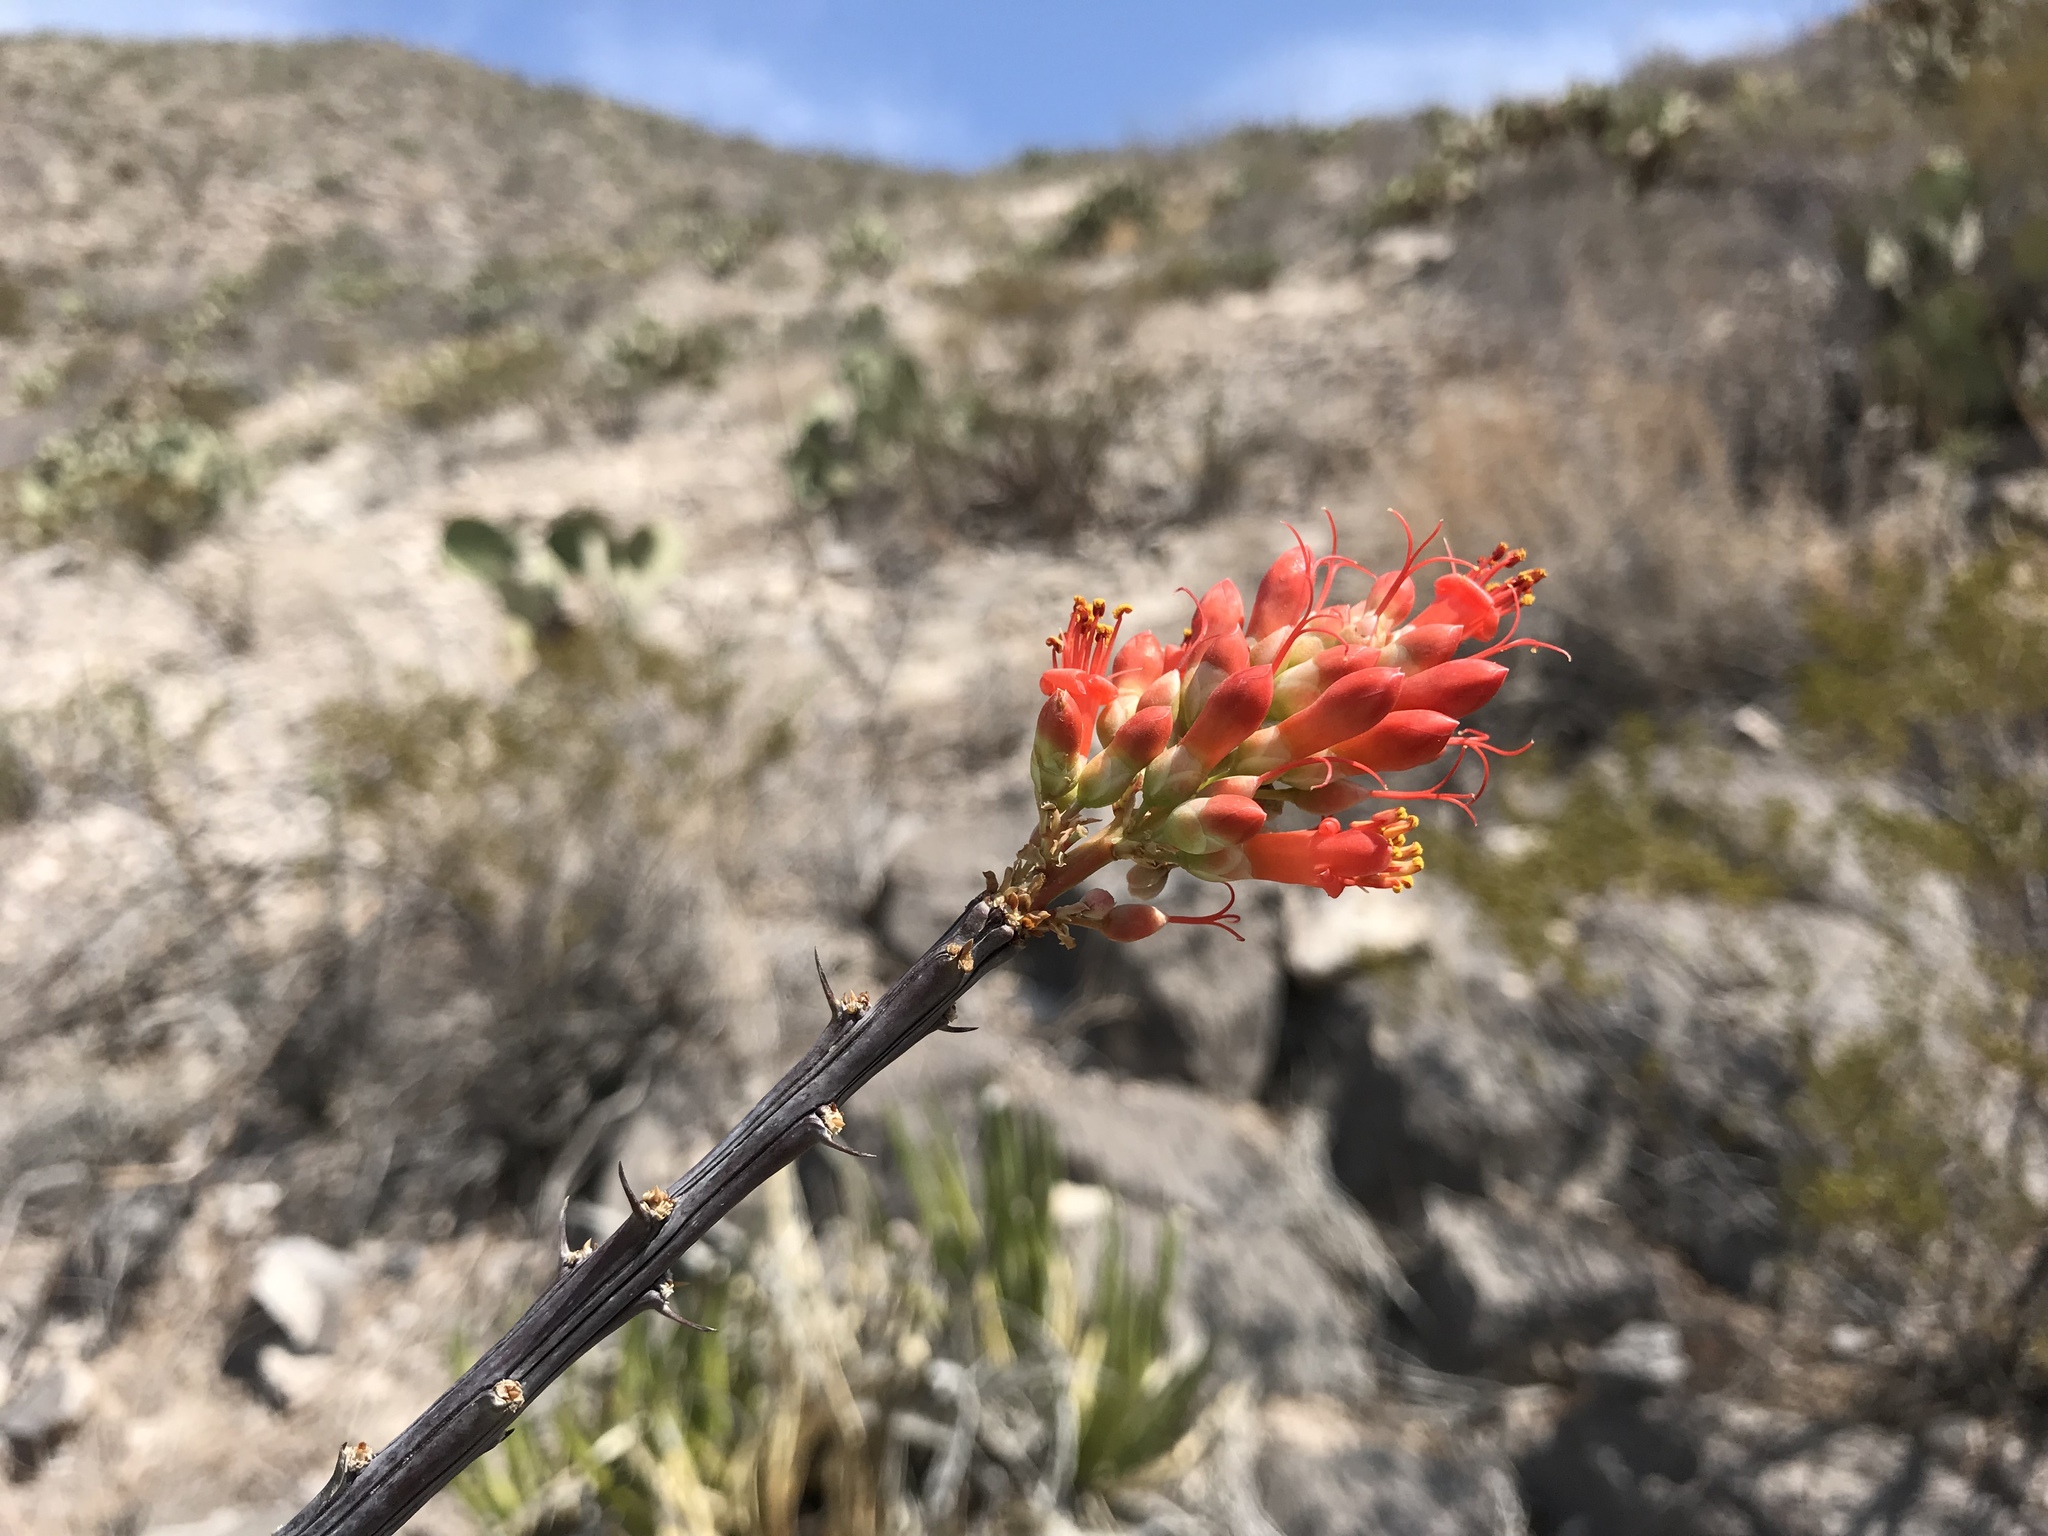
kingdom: Plantae
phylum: Tracheophyta
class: Magnoliopsida
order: Ericales
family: Fouquieriaceae
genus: Fouquieria
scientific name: Fouquieria splendens
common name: Vine-cactus
